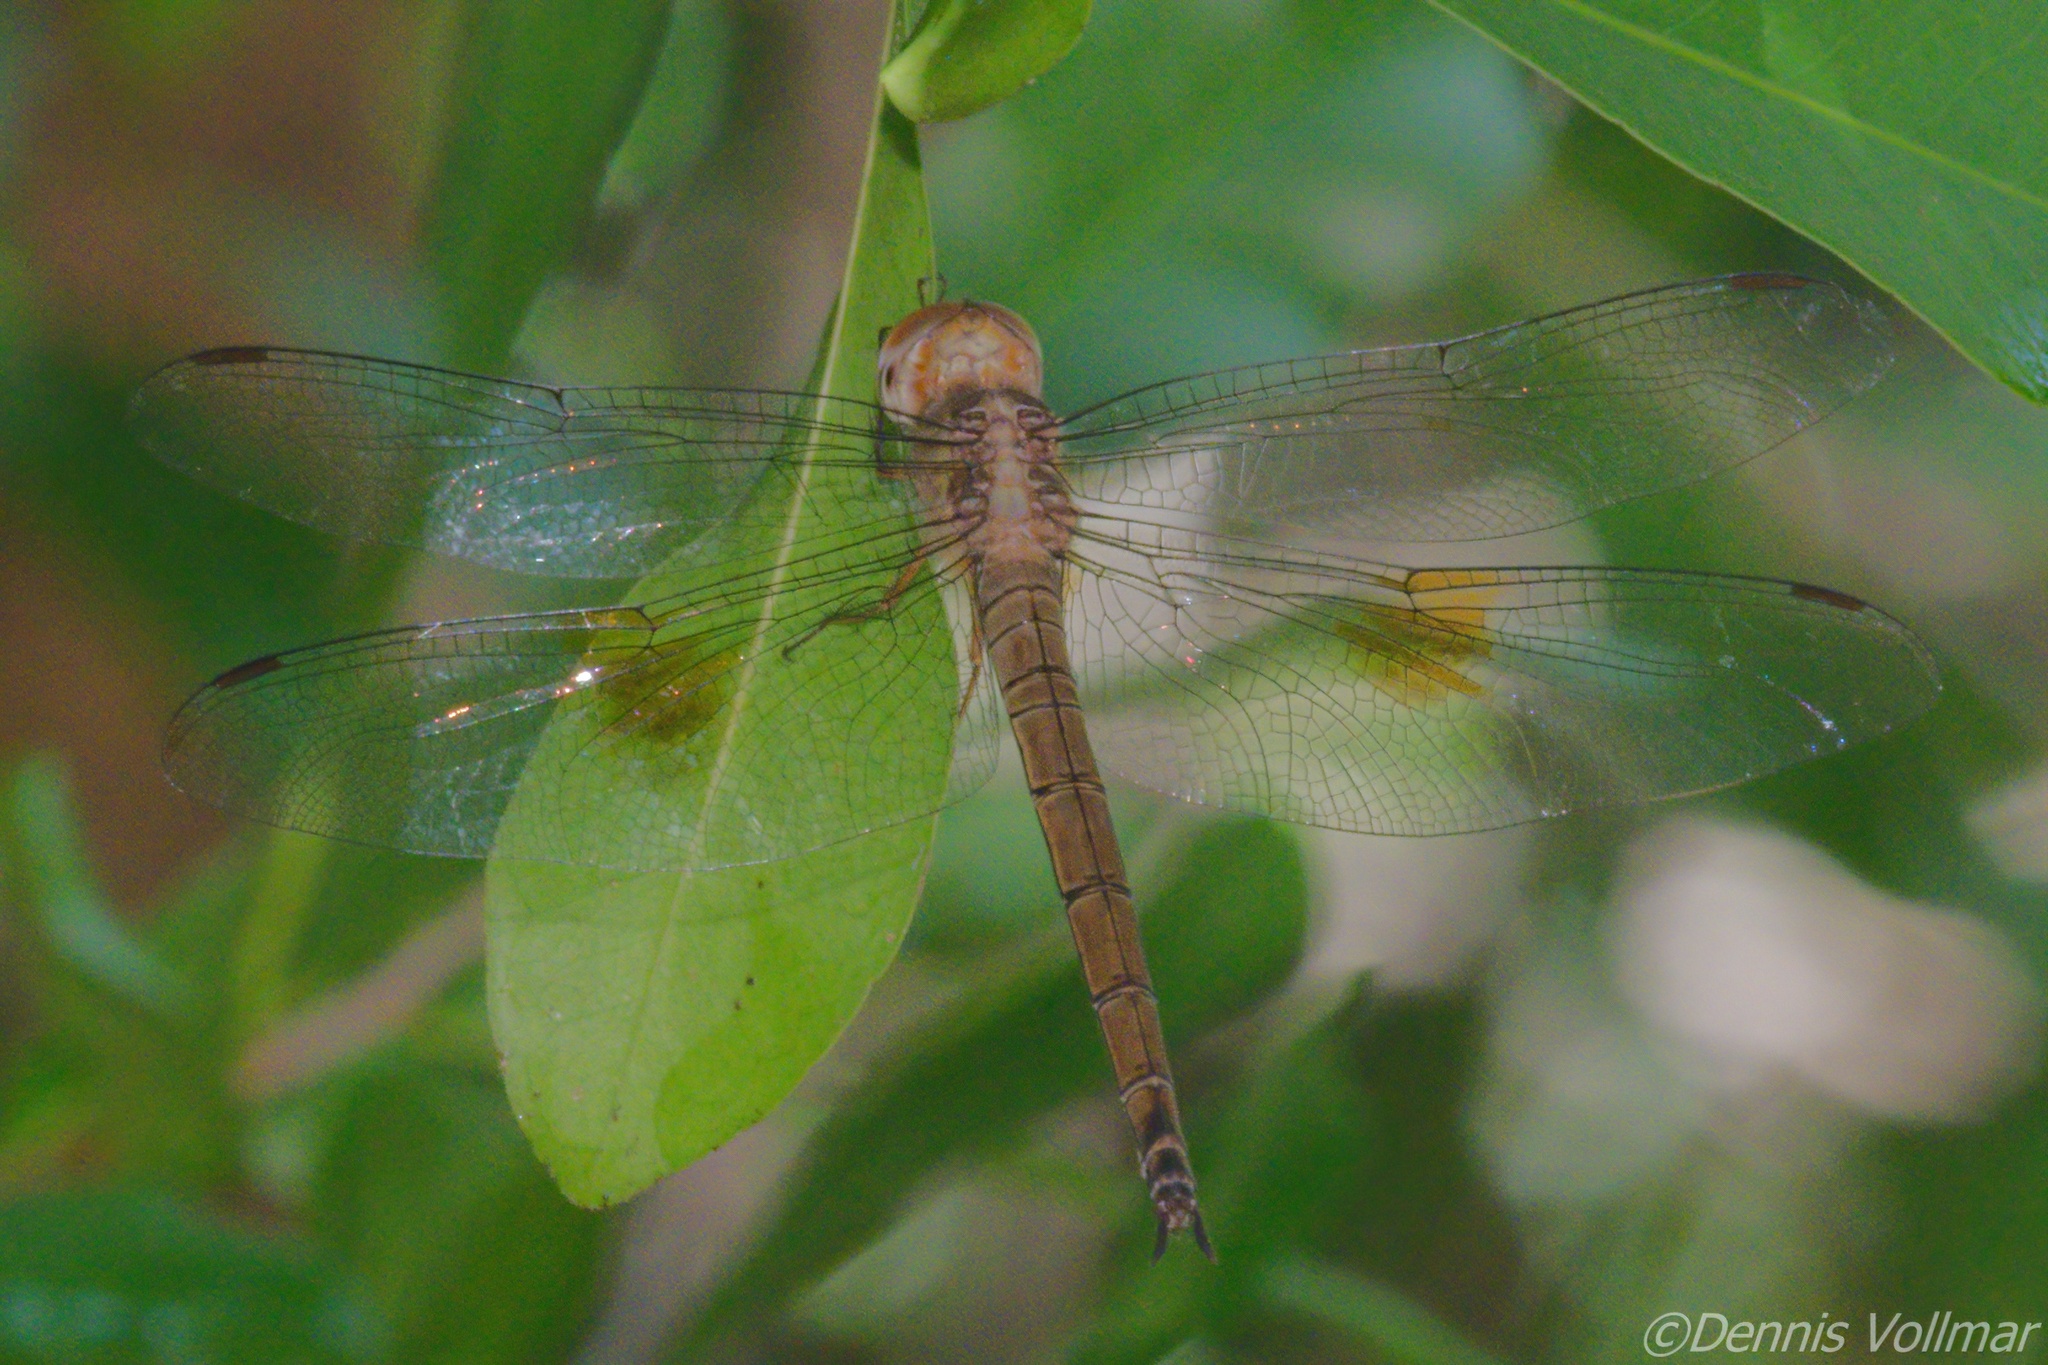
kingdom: Animalia
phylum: Arthropoda
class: Insecta
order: Odonata
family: Libellulidae
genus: Tholymis
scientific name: Tholymis citrina
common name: Evening skimmer
